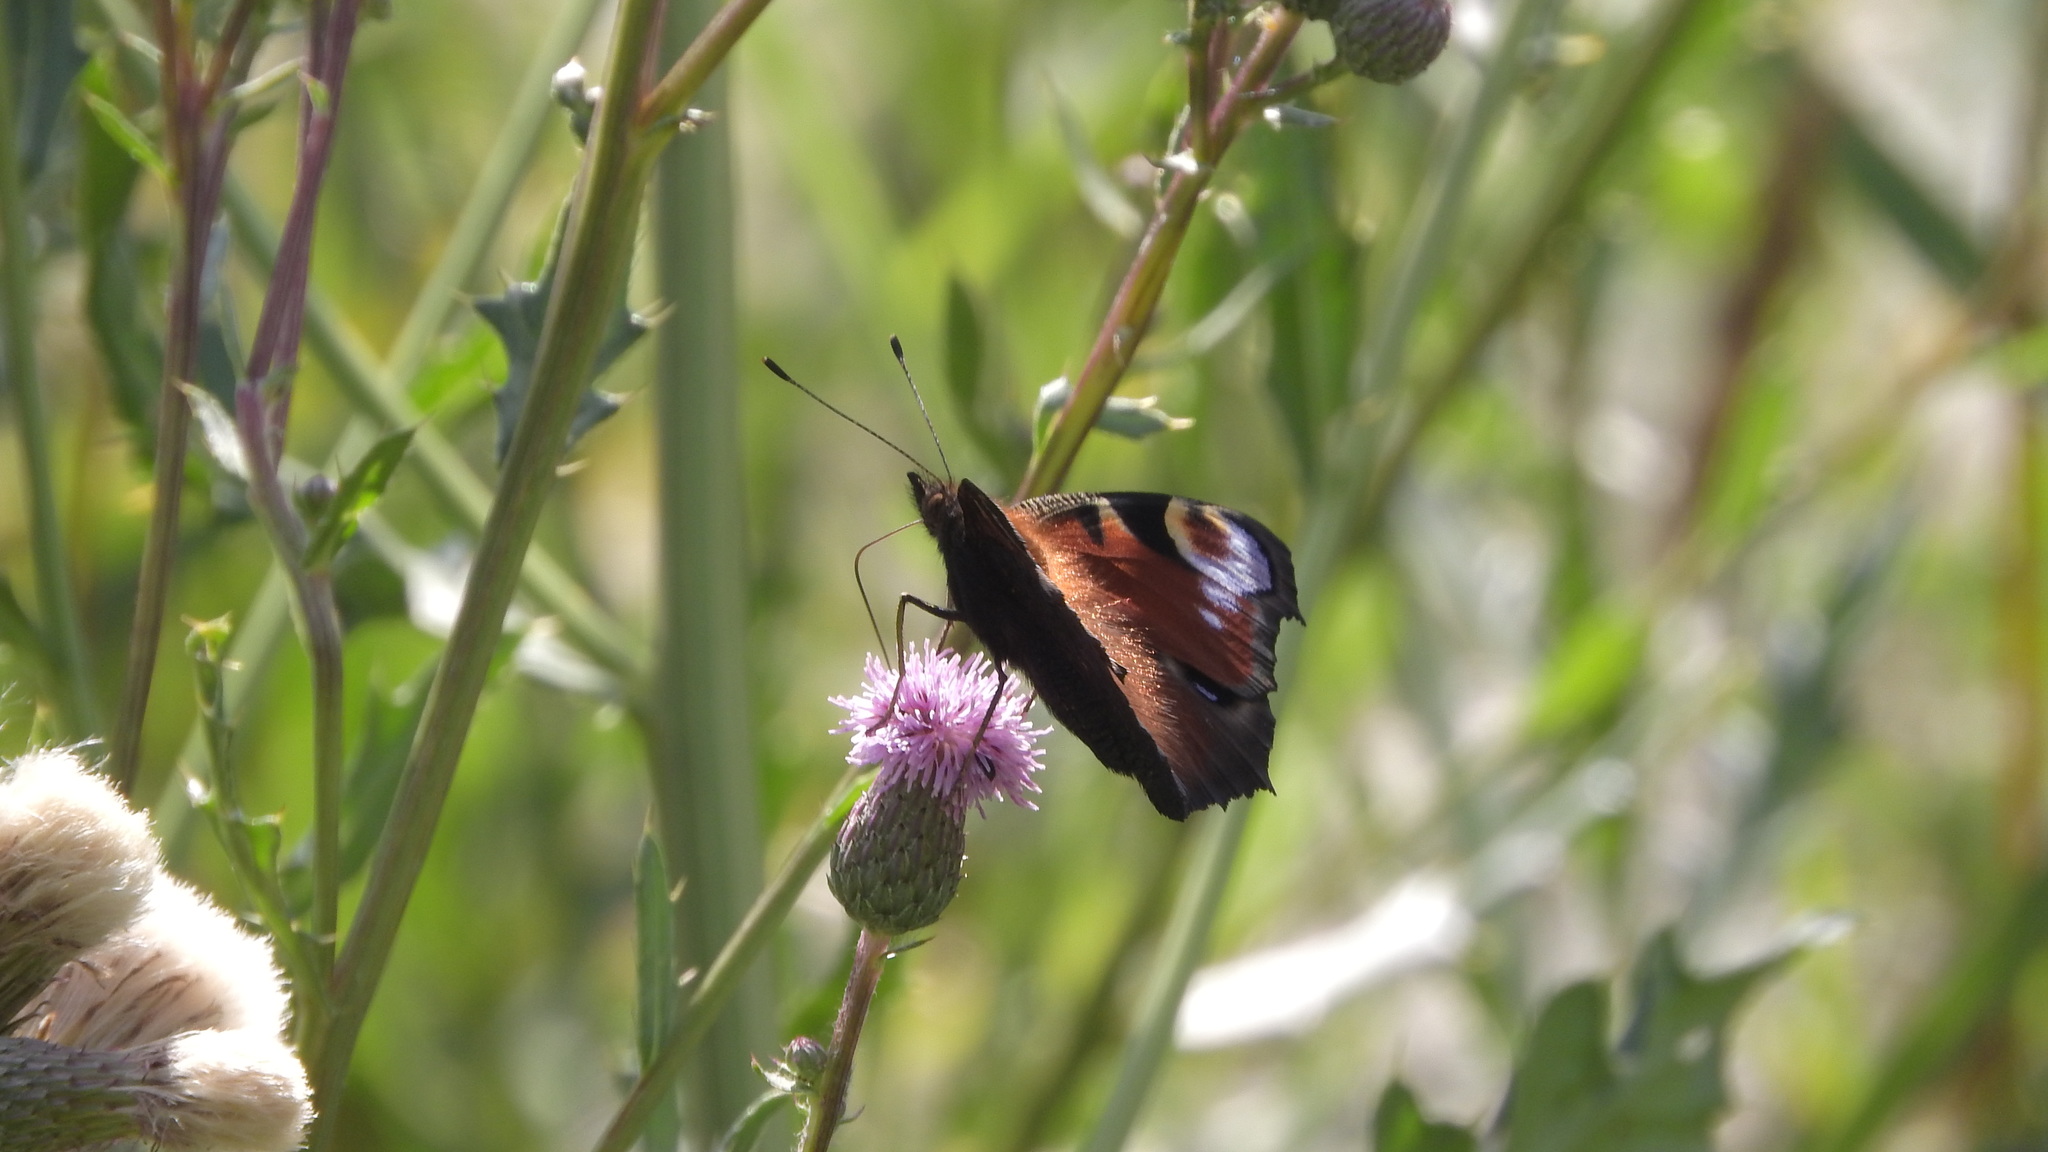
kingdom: Animalia
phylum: Arthropoda
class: Insecta
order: Lepidoptera
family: Nymphalidae
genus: Aglais
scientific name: Aglais io
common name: Peacock
